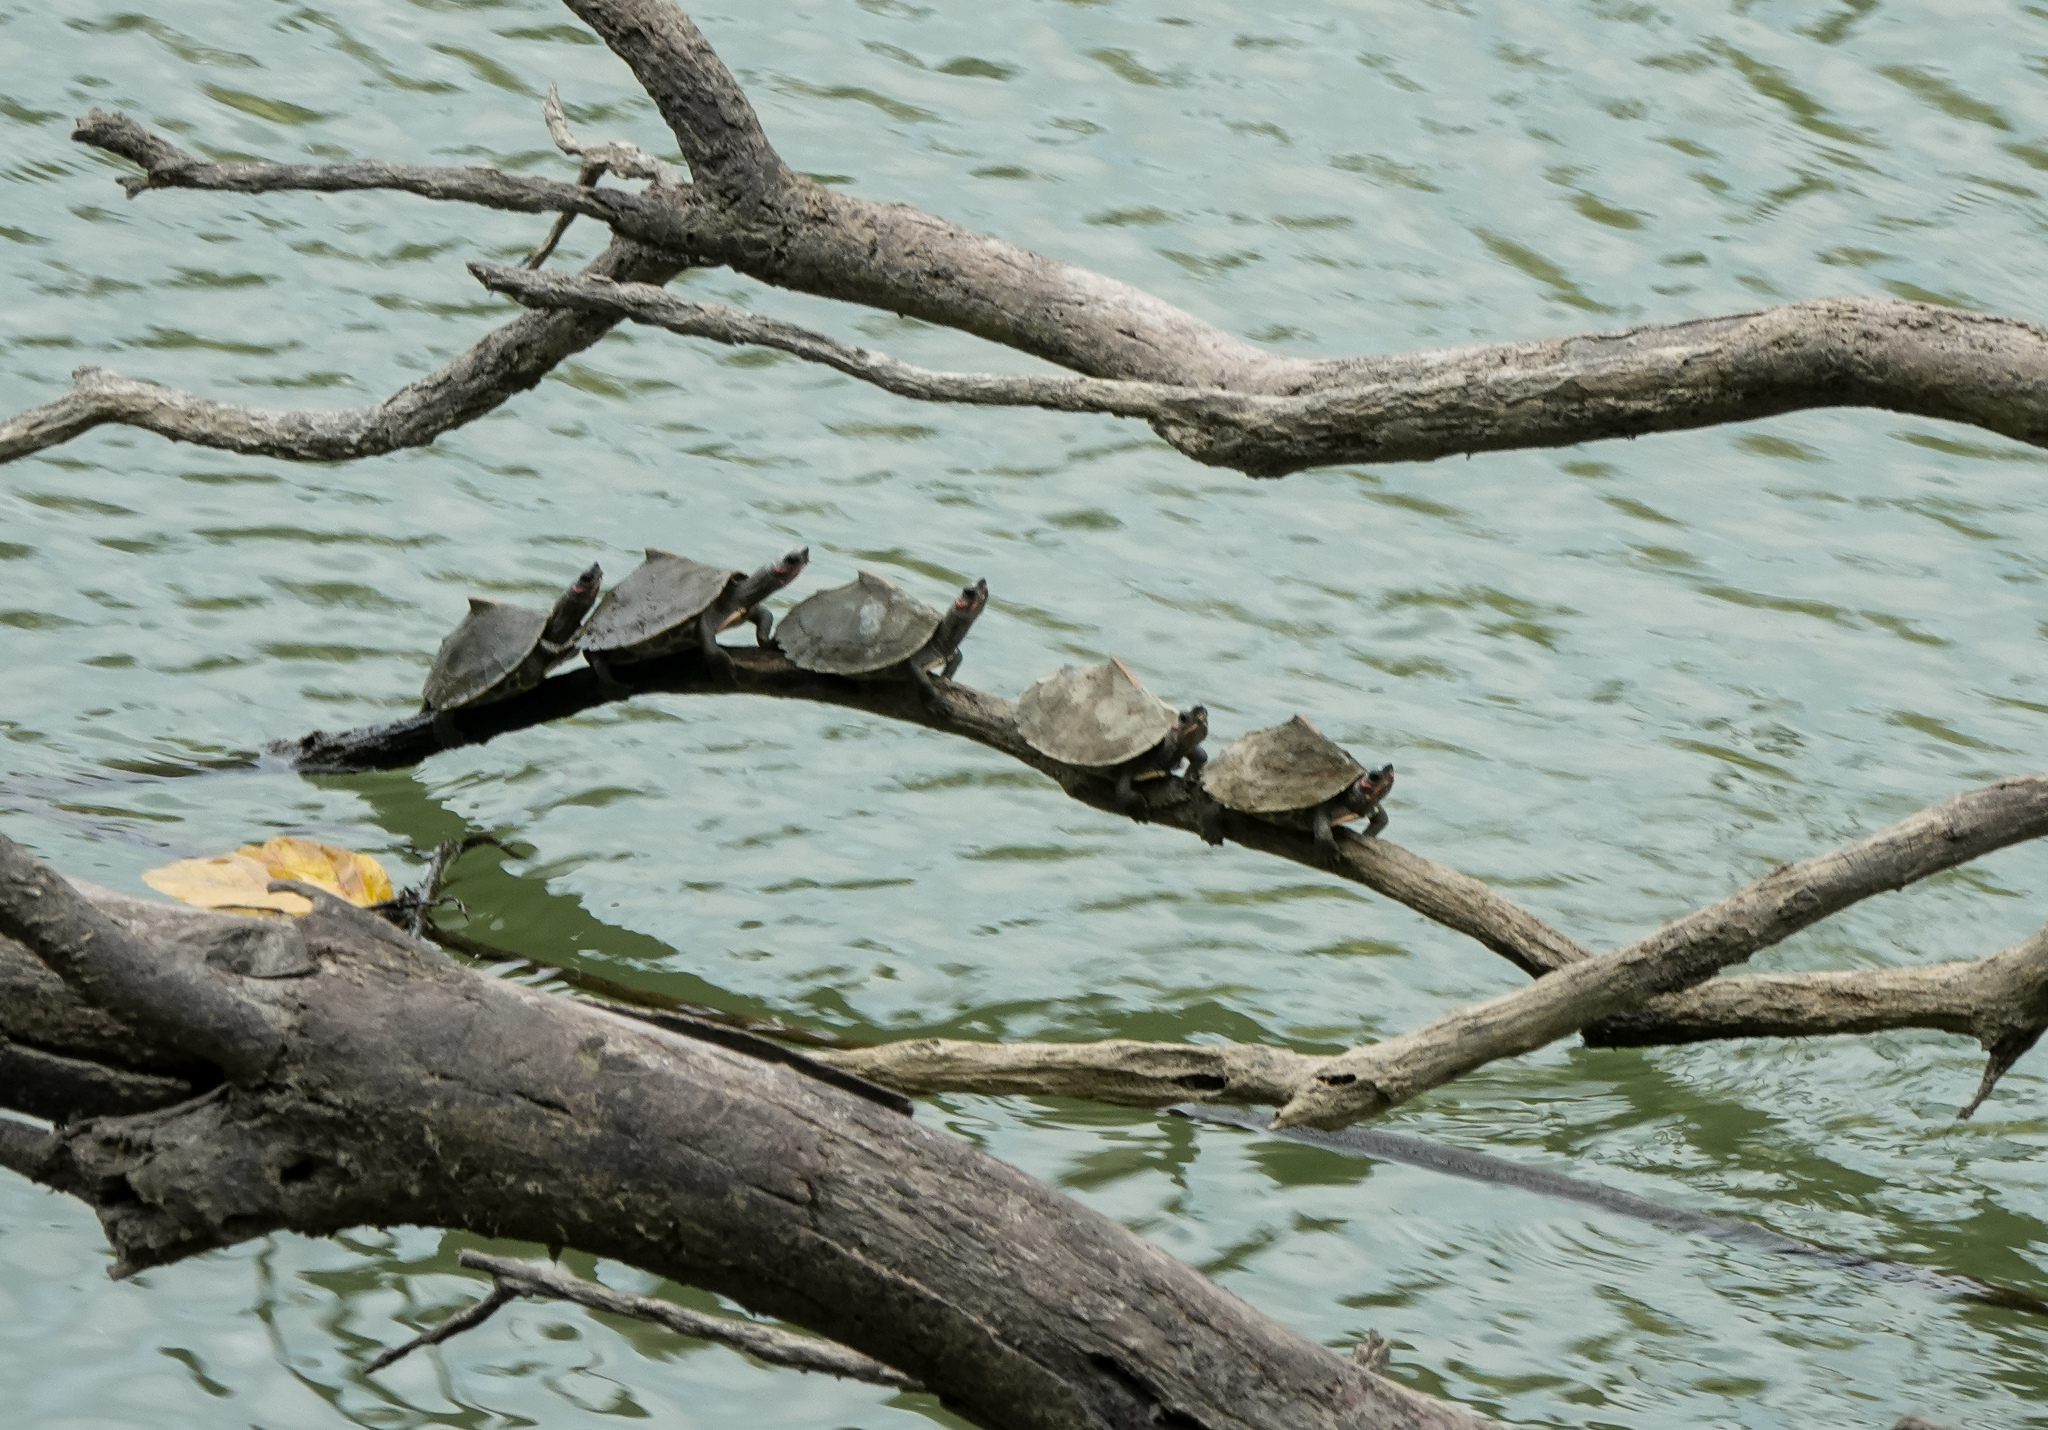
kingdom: Animalia
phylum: Chordata
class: Testudines
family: Geoemydidae
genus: Pangshura
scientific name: Pangshura sylhetensis
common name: Assam roofed turtle
